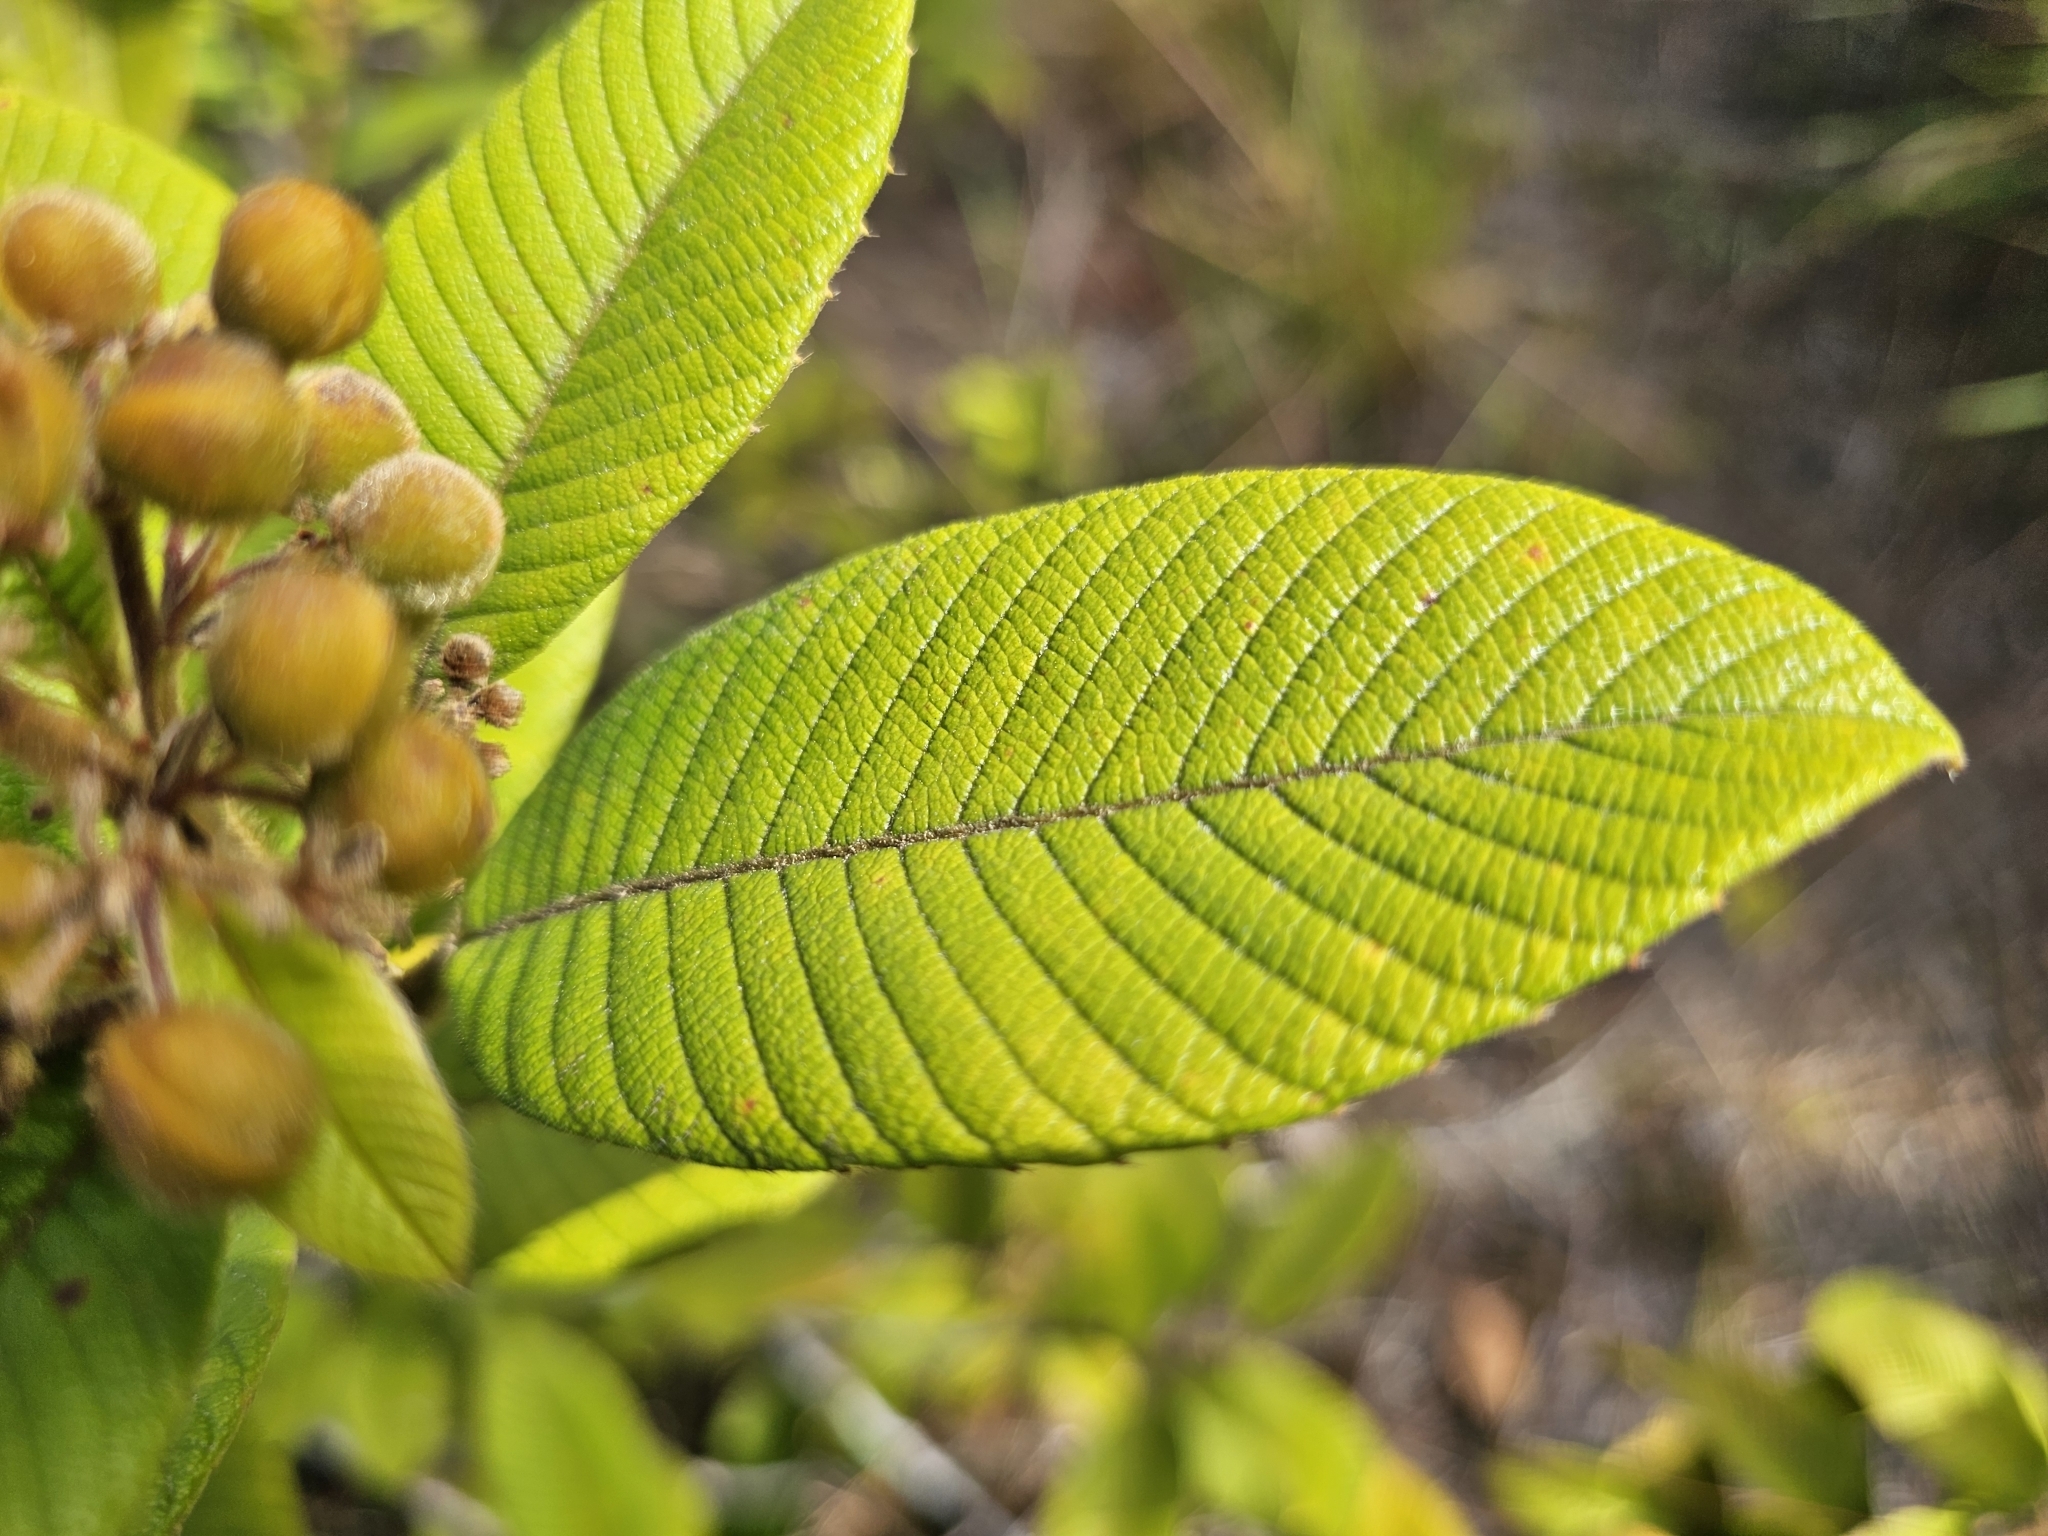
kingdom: Plantae
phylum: Tracheophyta
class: Magnoliopsida
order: Dilleniales
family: Dilleniaceae
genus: Davilla
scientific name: Davilla kunthii
